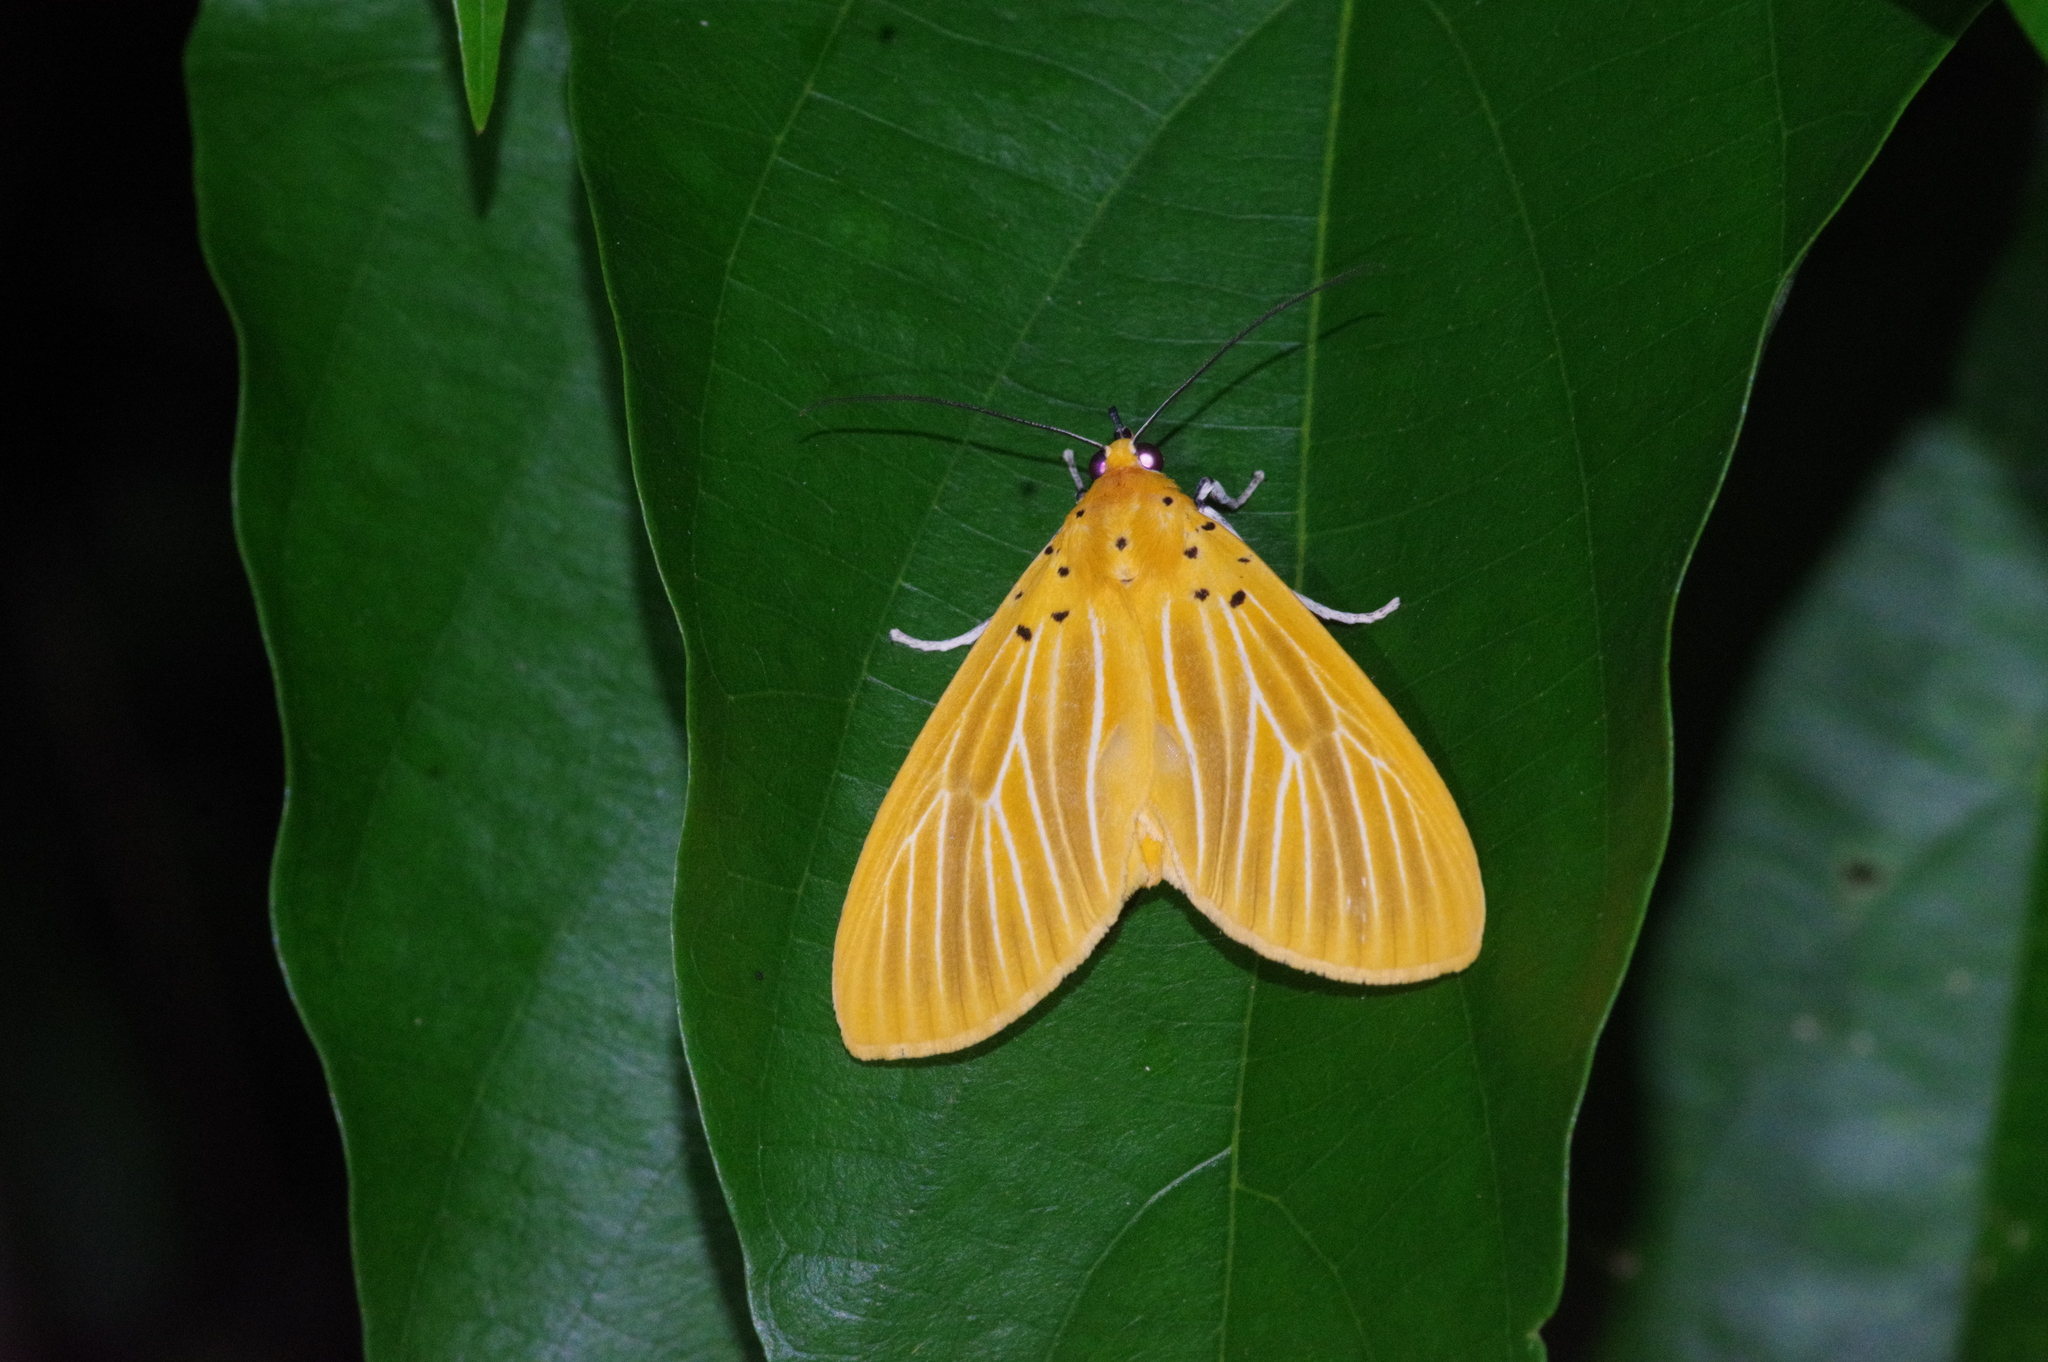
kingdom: Animalia
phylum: Arthropoda
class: Insecta
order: Lepidoptera
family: Erebidae
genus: Asota
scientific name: Asota egens
